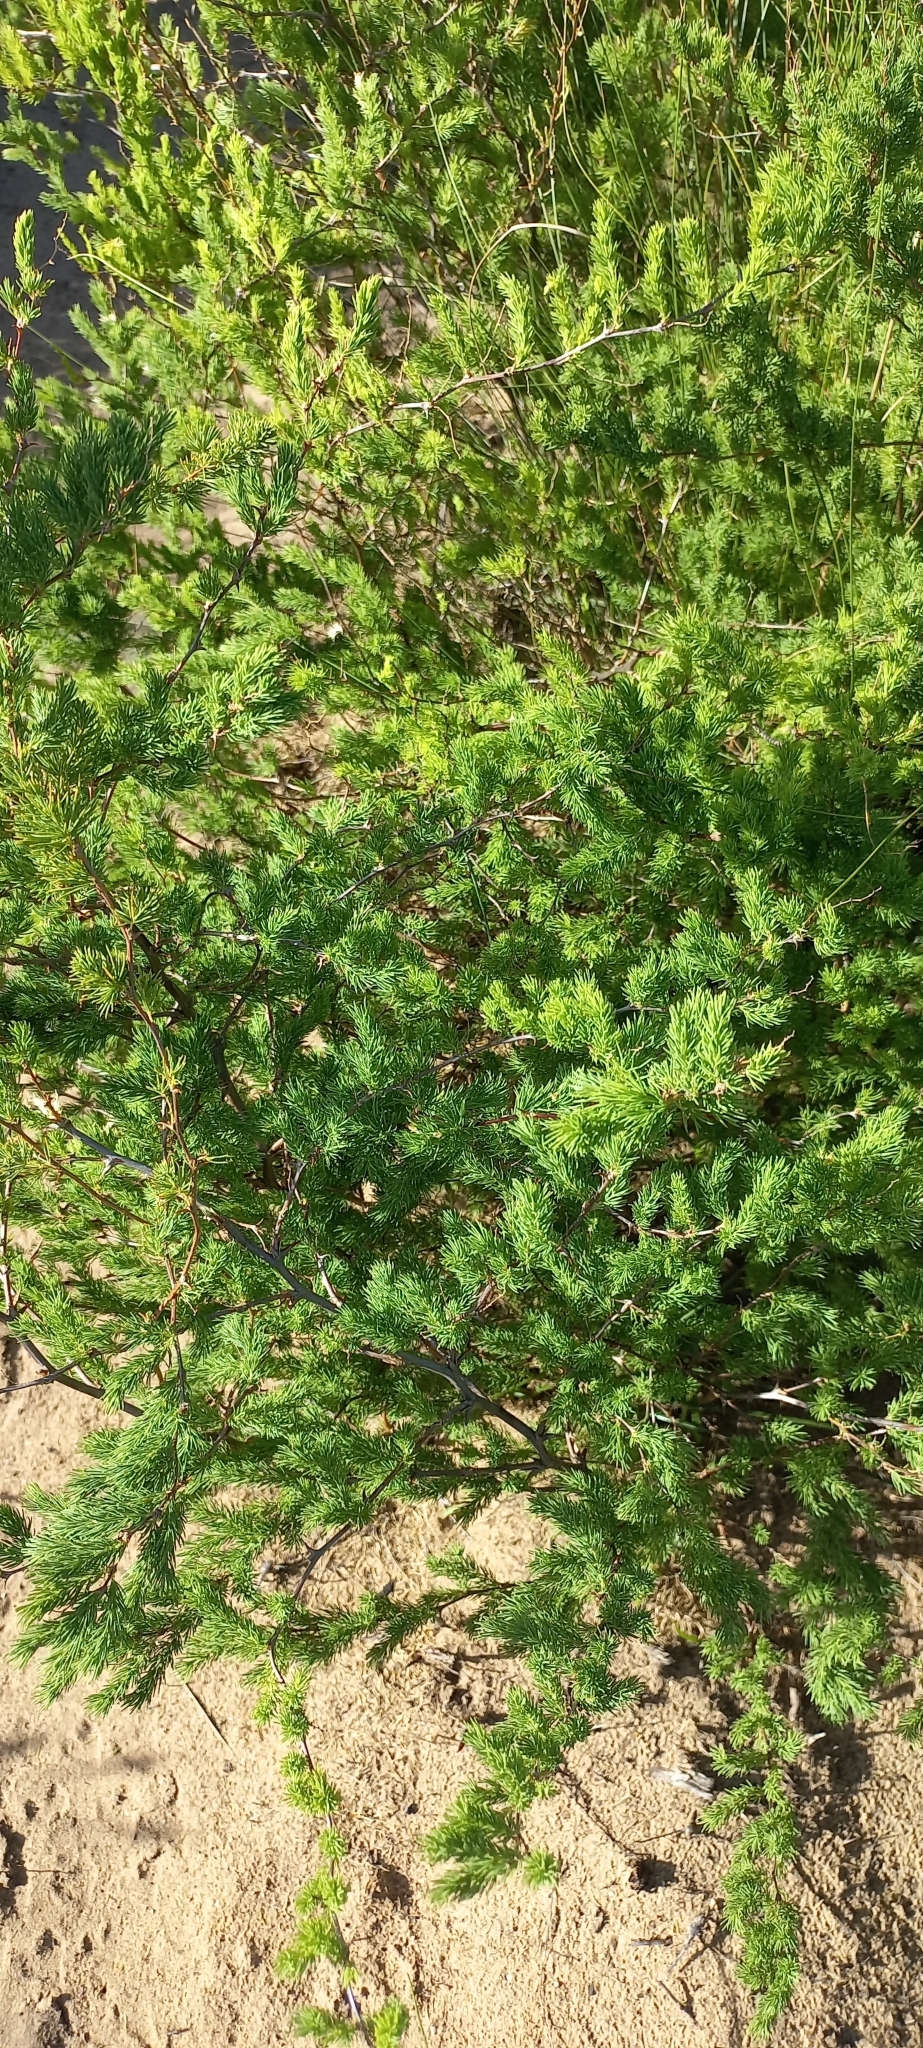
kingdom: Plantae
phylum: Tracheophyta
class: Liliopsida
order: Asparagales
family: Asparagaceae
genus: Asparagus
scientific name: Asparagus rubicundus
